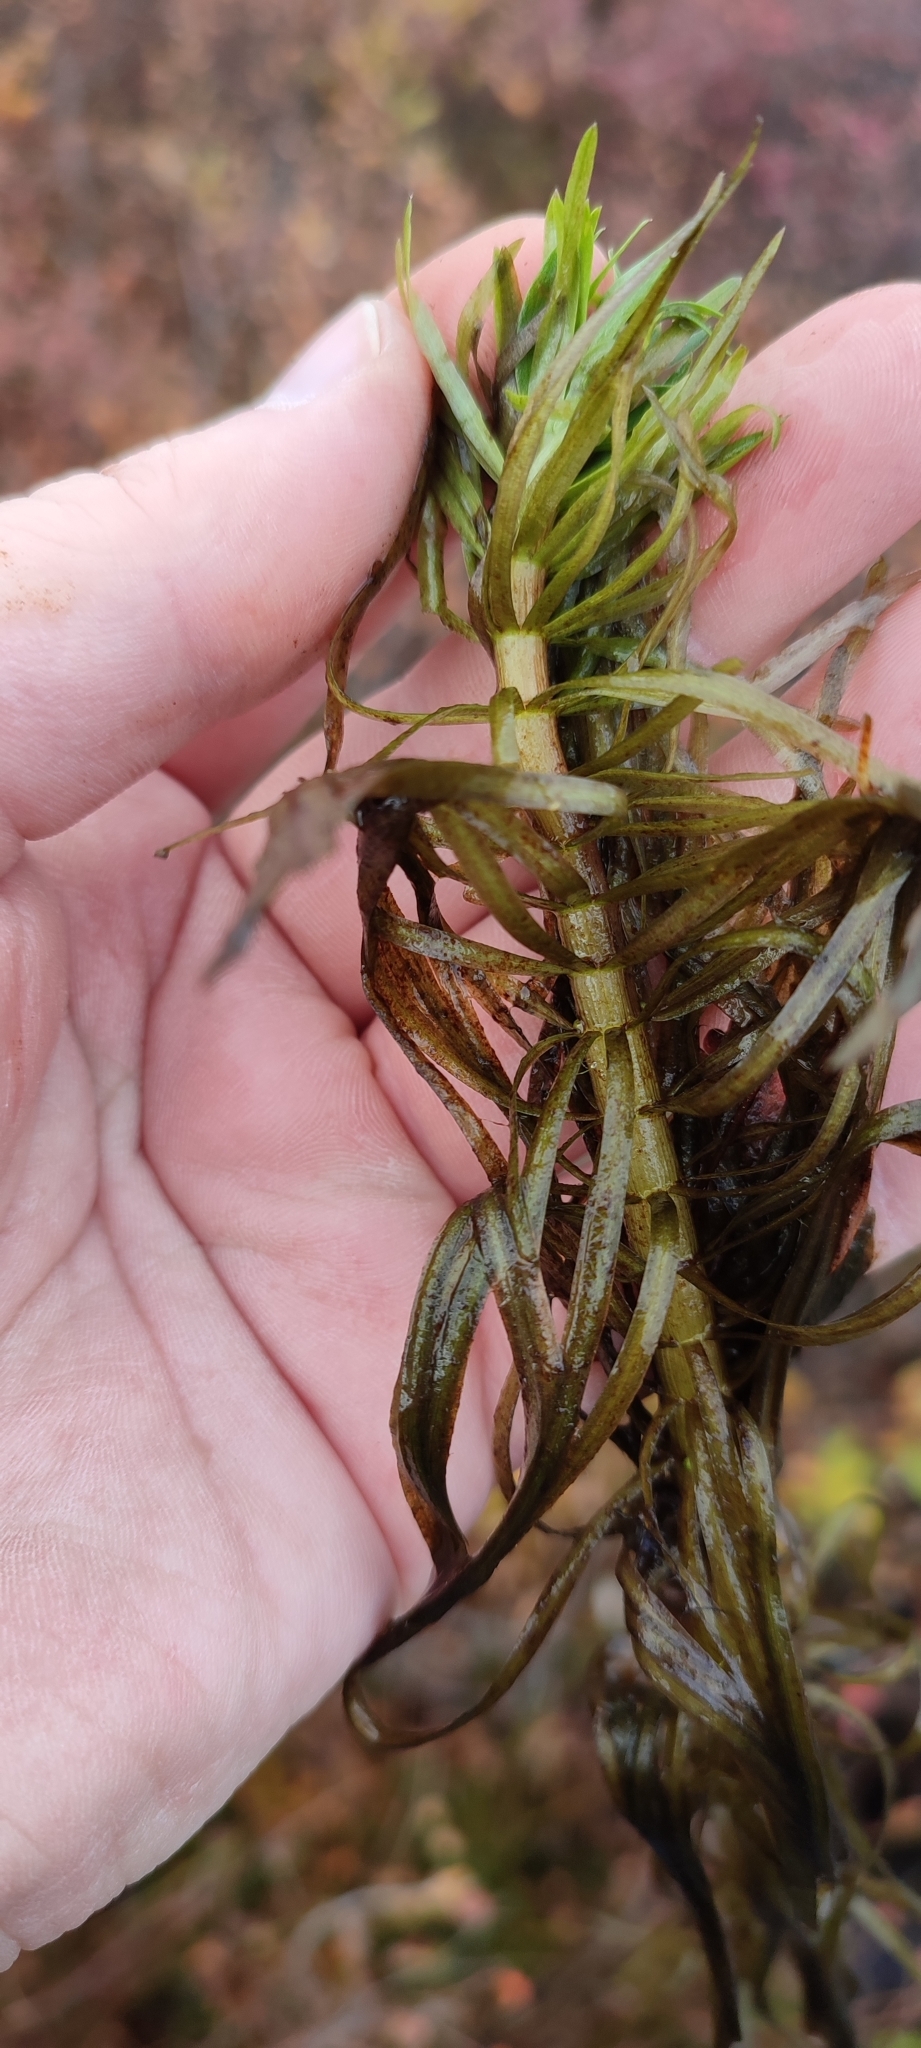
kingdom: Plantae
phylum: Tracheophyta
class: Magnoliopsida
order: Lamiales
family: Plantaginaceae
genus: Hippuris
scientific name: Hippuris vulgaris
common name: Mare's-tail
